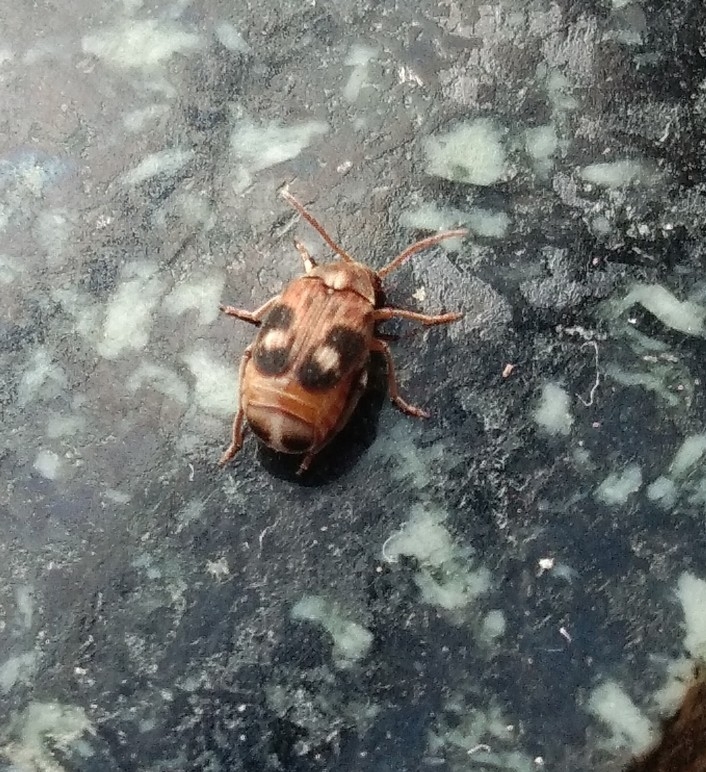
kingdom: Animalia
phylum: Arthropoda
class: Insecta
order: Coleoptera
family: Chrysomelidae
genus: Callosobruchus
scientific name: Callosobruchus maculatus
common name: Southern cowpea weevil
